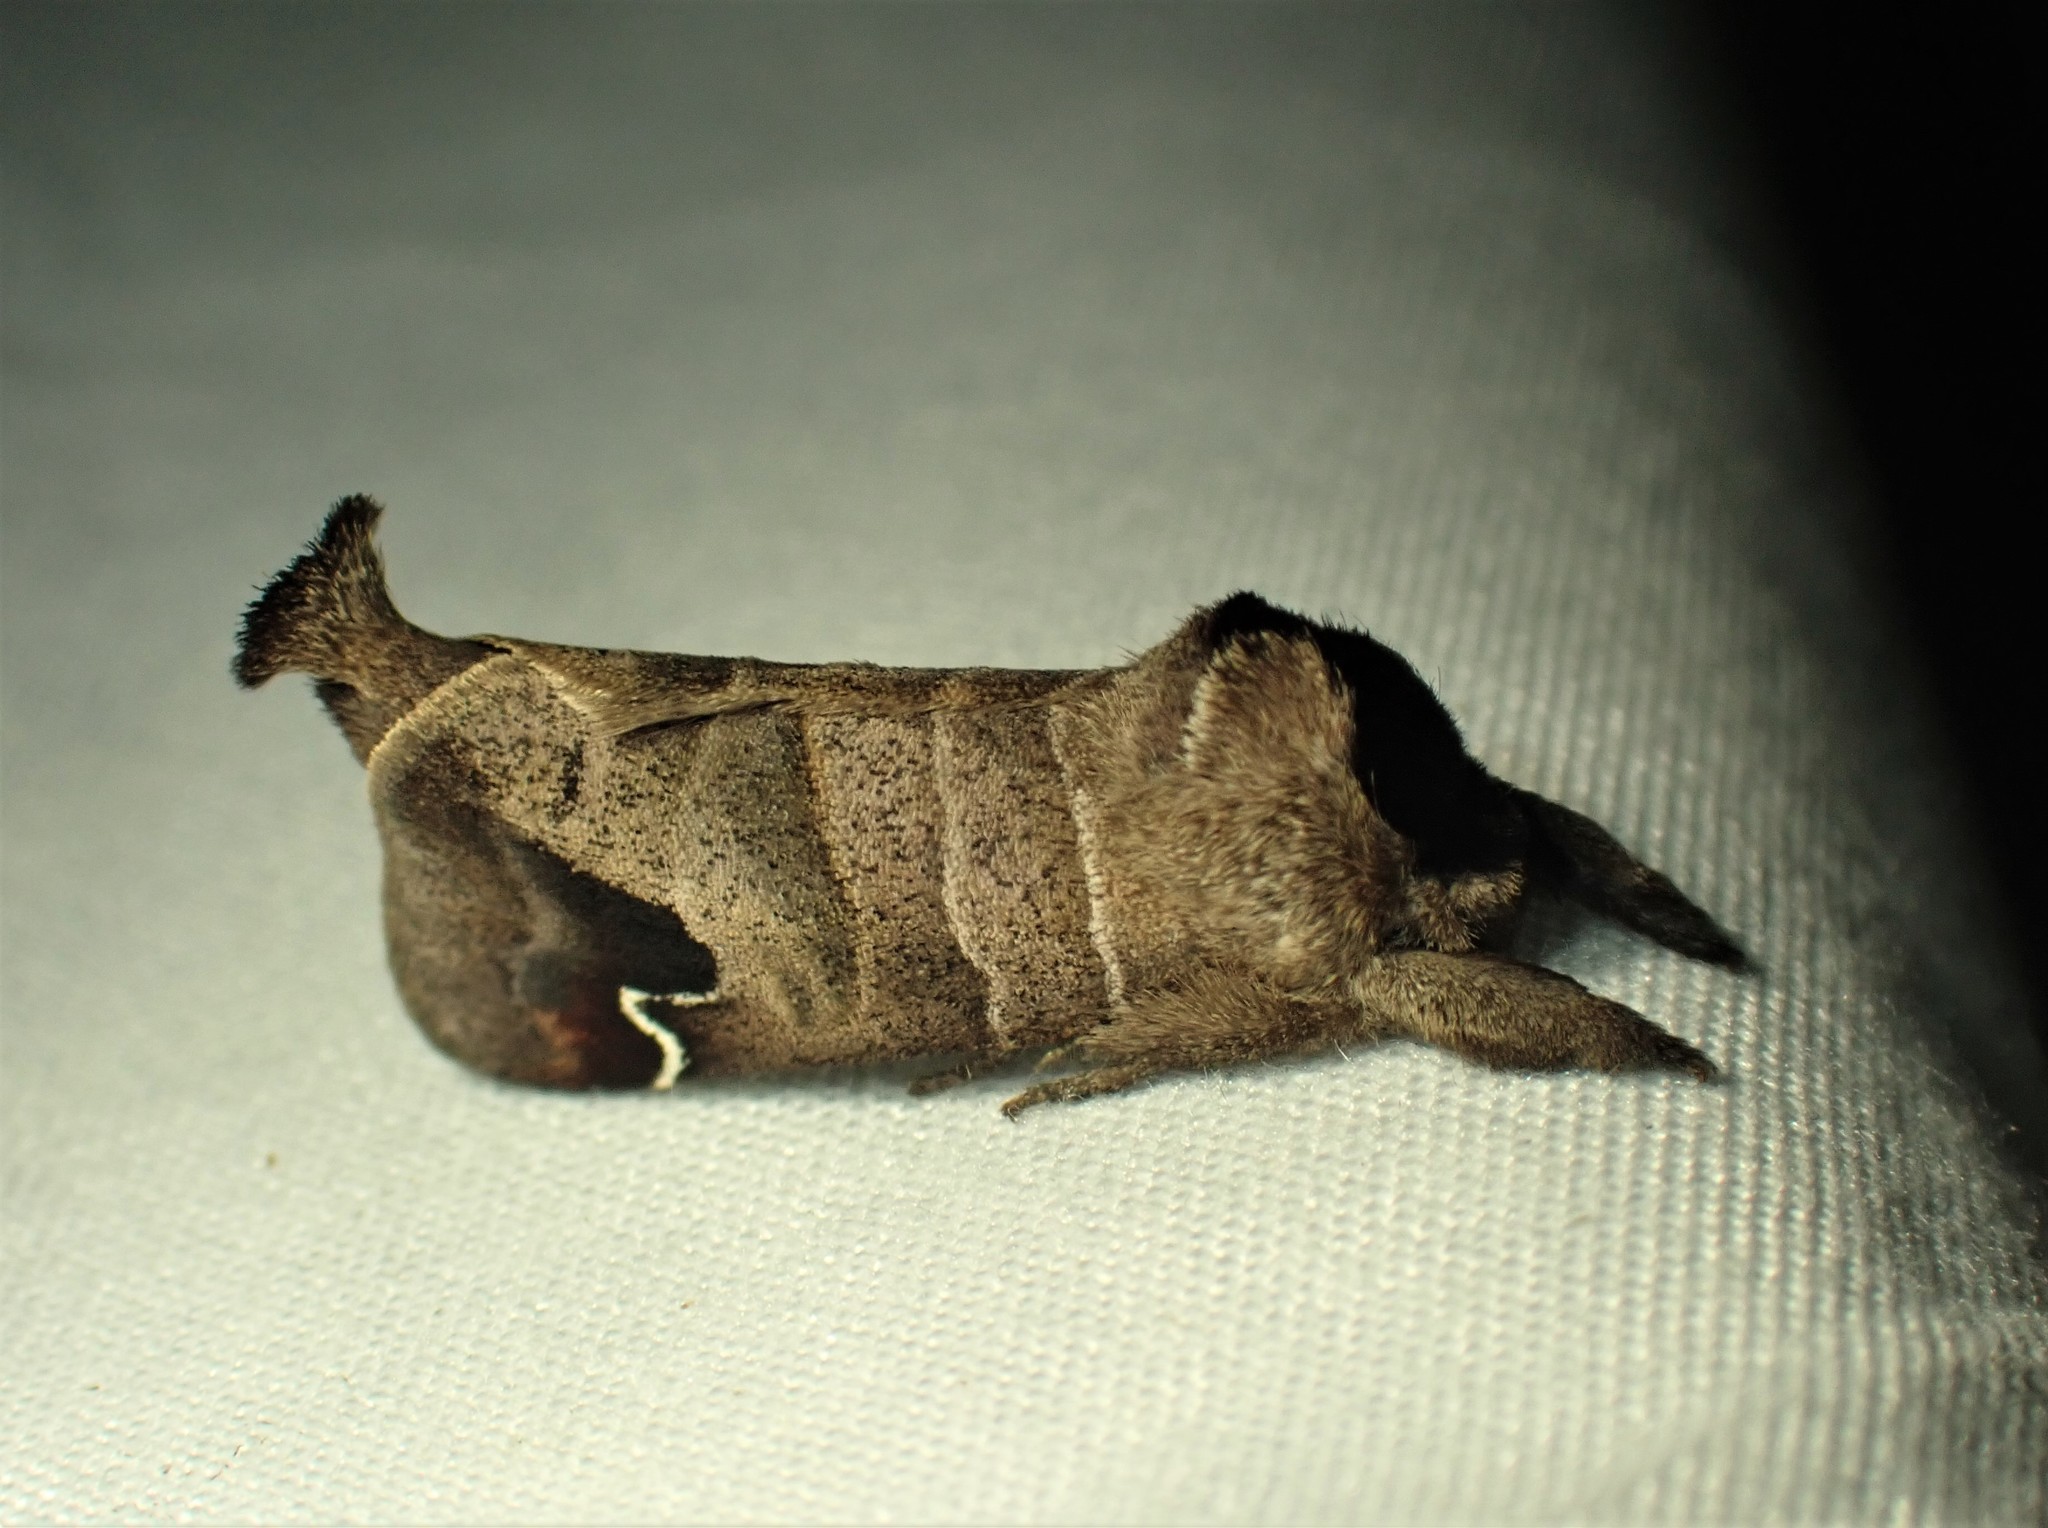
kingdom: Animalia
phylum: Arthropoda
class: Insecta
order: Lepidoptera
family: Notodontidae
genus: Clostera
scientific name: Clostera albosigma
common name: Sigmoid prominent
